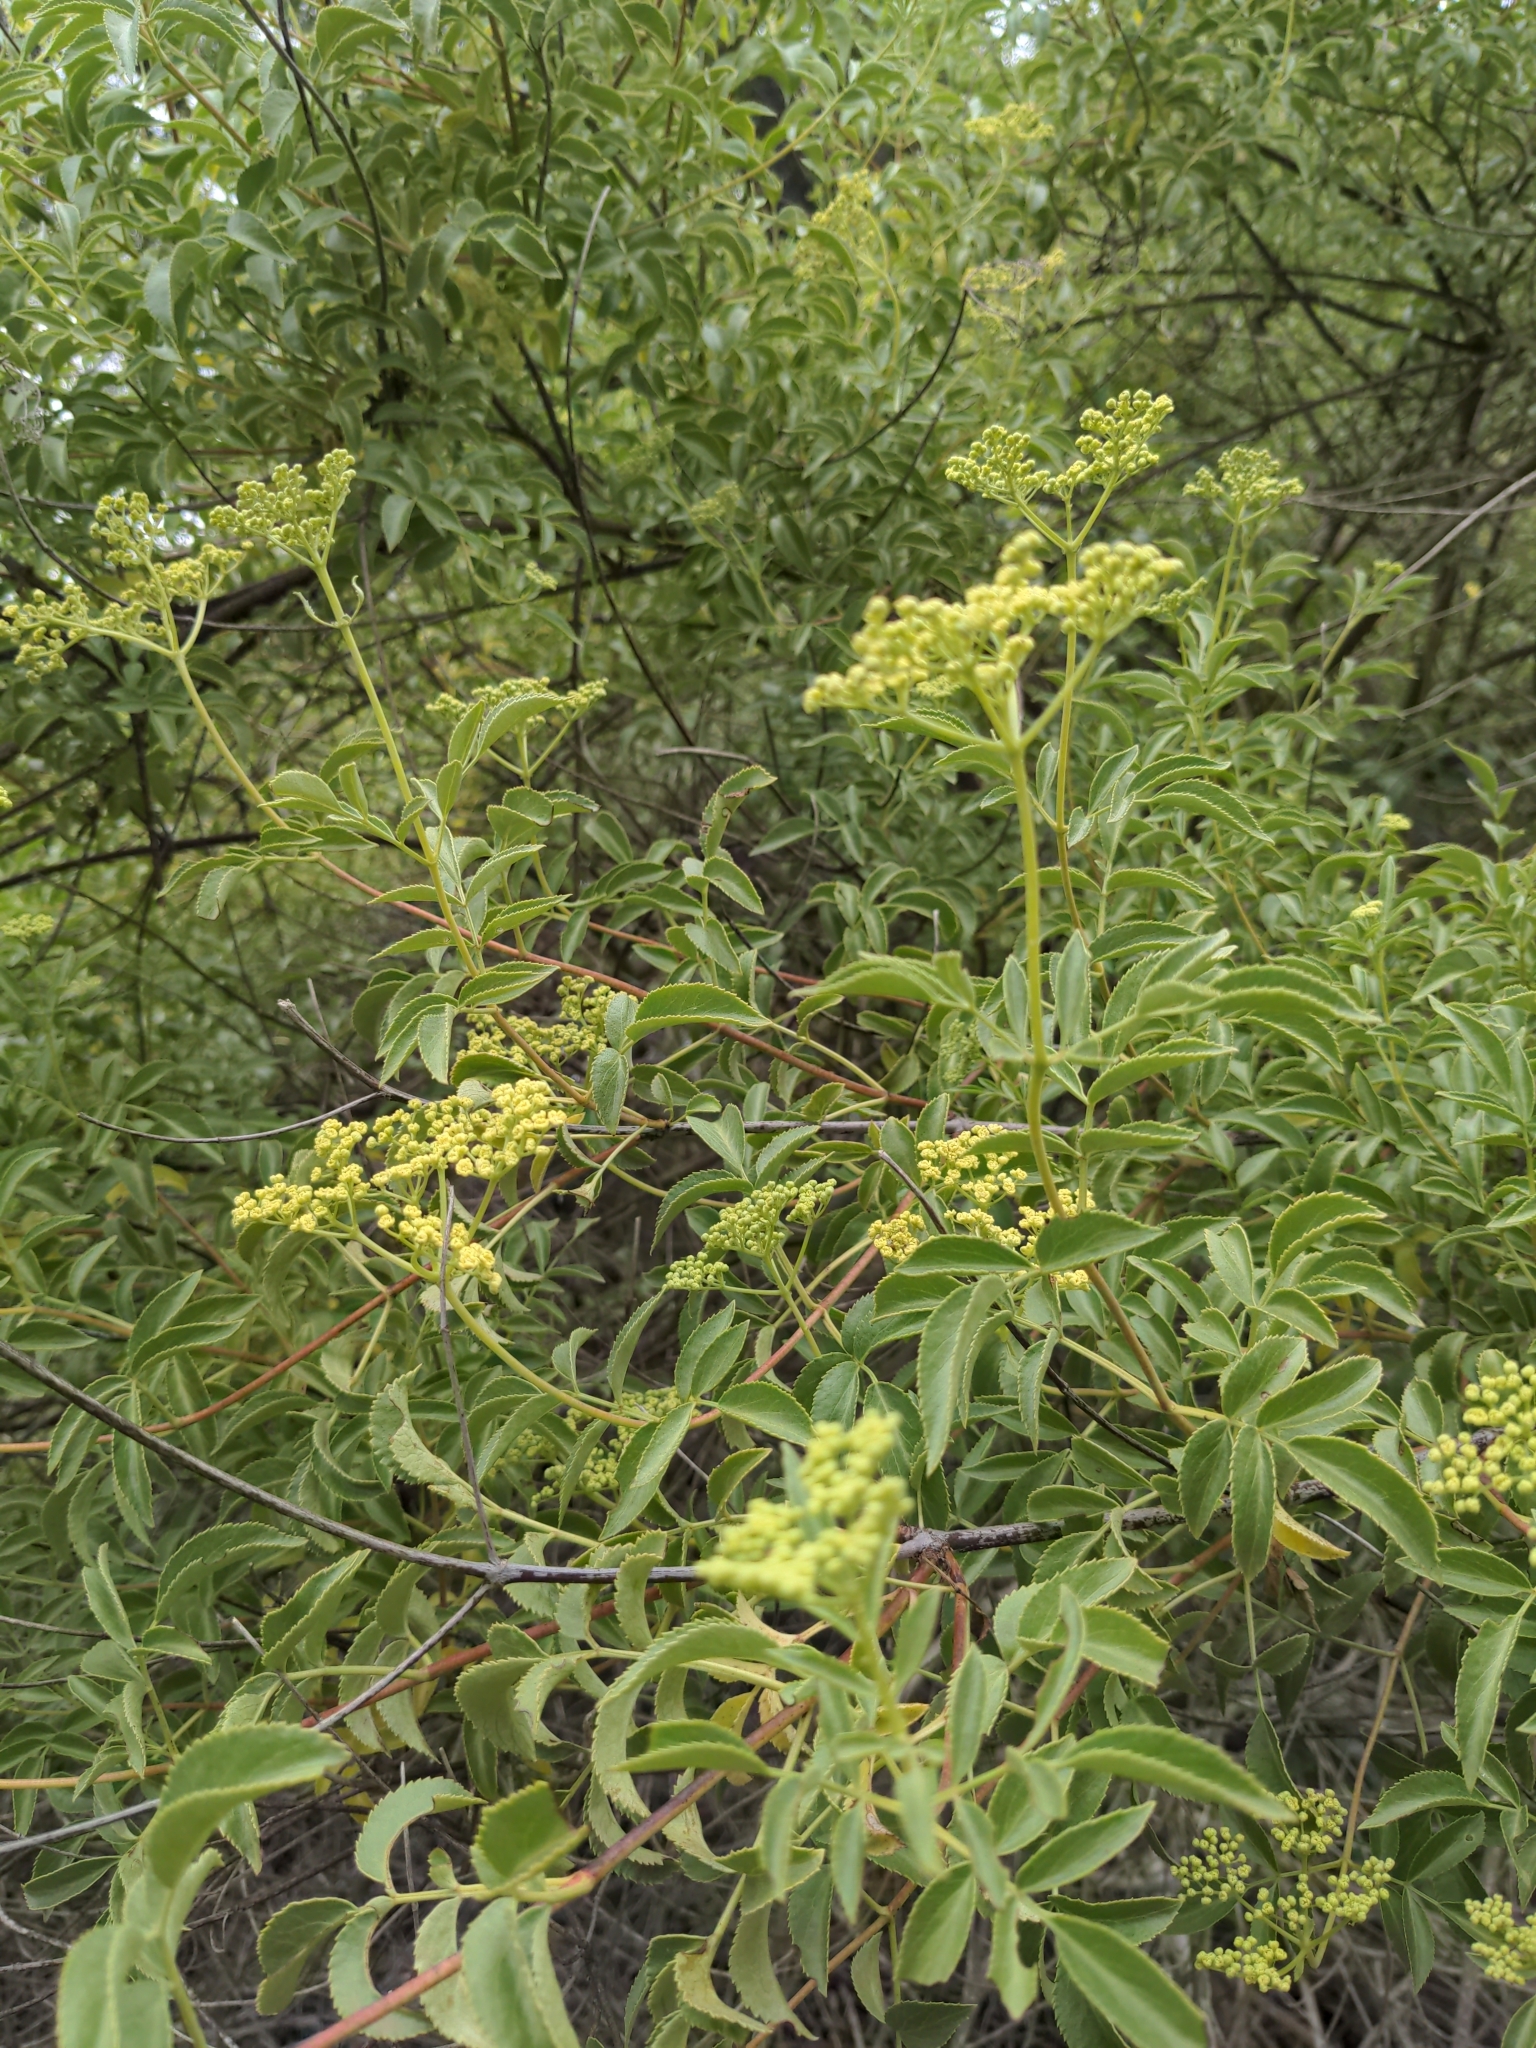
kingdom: Plantae
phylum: Tracheophyta
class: Magnoliopsida
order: Dipsacales
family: Viburnaceae
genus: Sambucus
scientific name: Sambucus cerulea
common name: Blue elder
